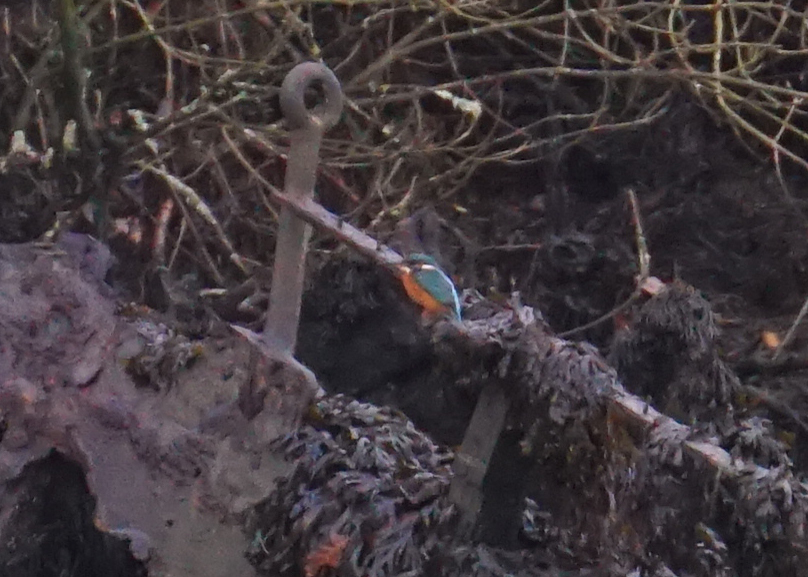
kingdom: Animalia
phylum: Chordata
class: Aves
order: Coraciiformes
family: Alcedinidae
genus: Alcedo
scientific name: Alcedo atthis
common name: Common kingfisher
